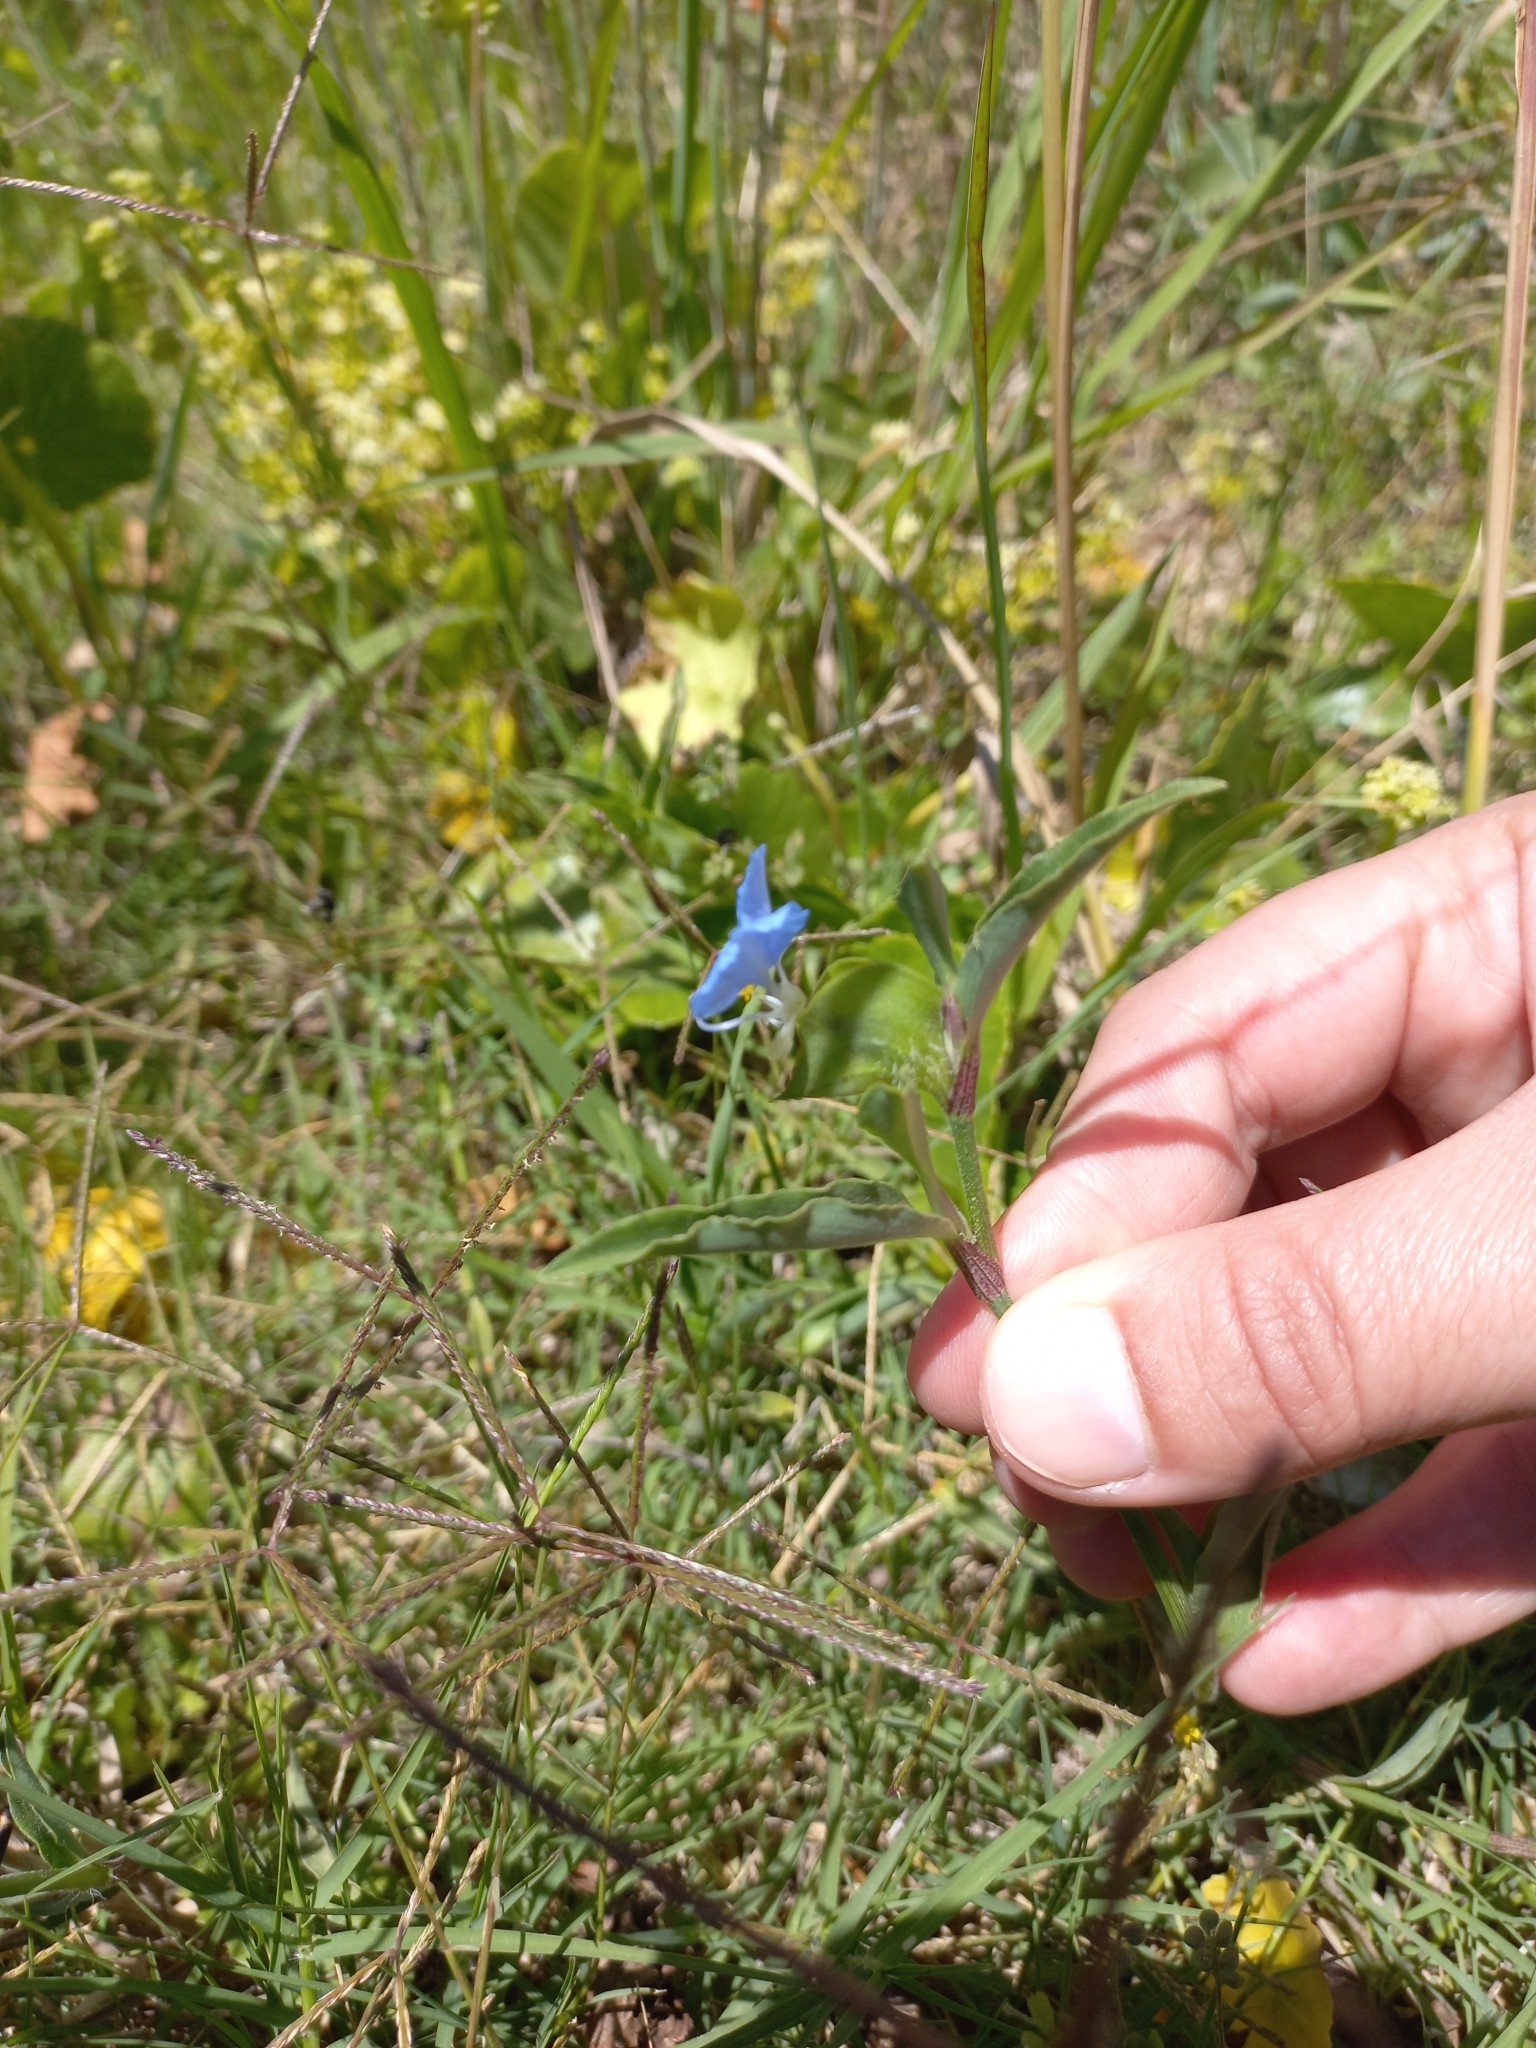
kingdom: Plantae
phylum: Tracheophyta
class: Liliopsida
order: Commelinales
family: Commelinaceae
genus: Commelina
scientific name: Commelina erecta
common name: Blousel blommetjie
